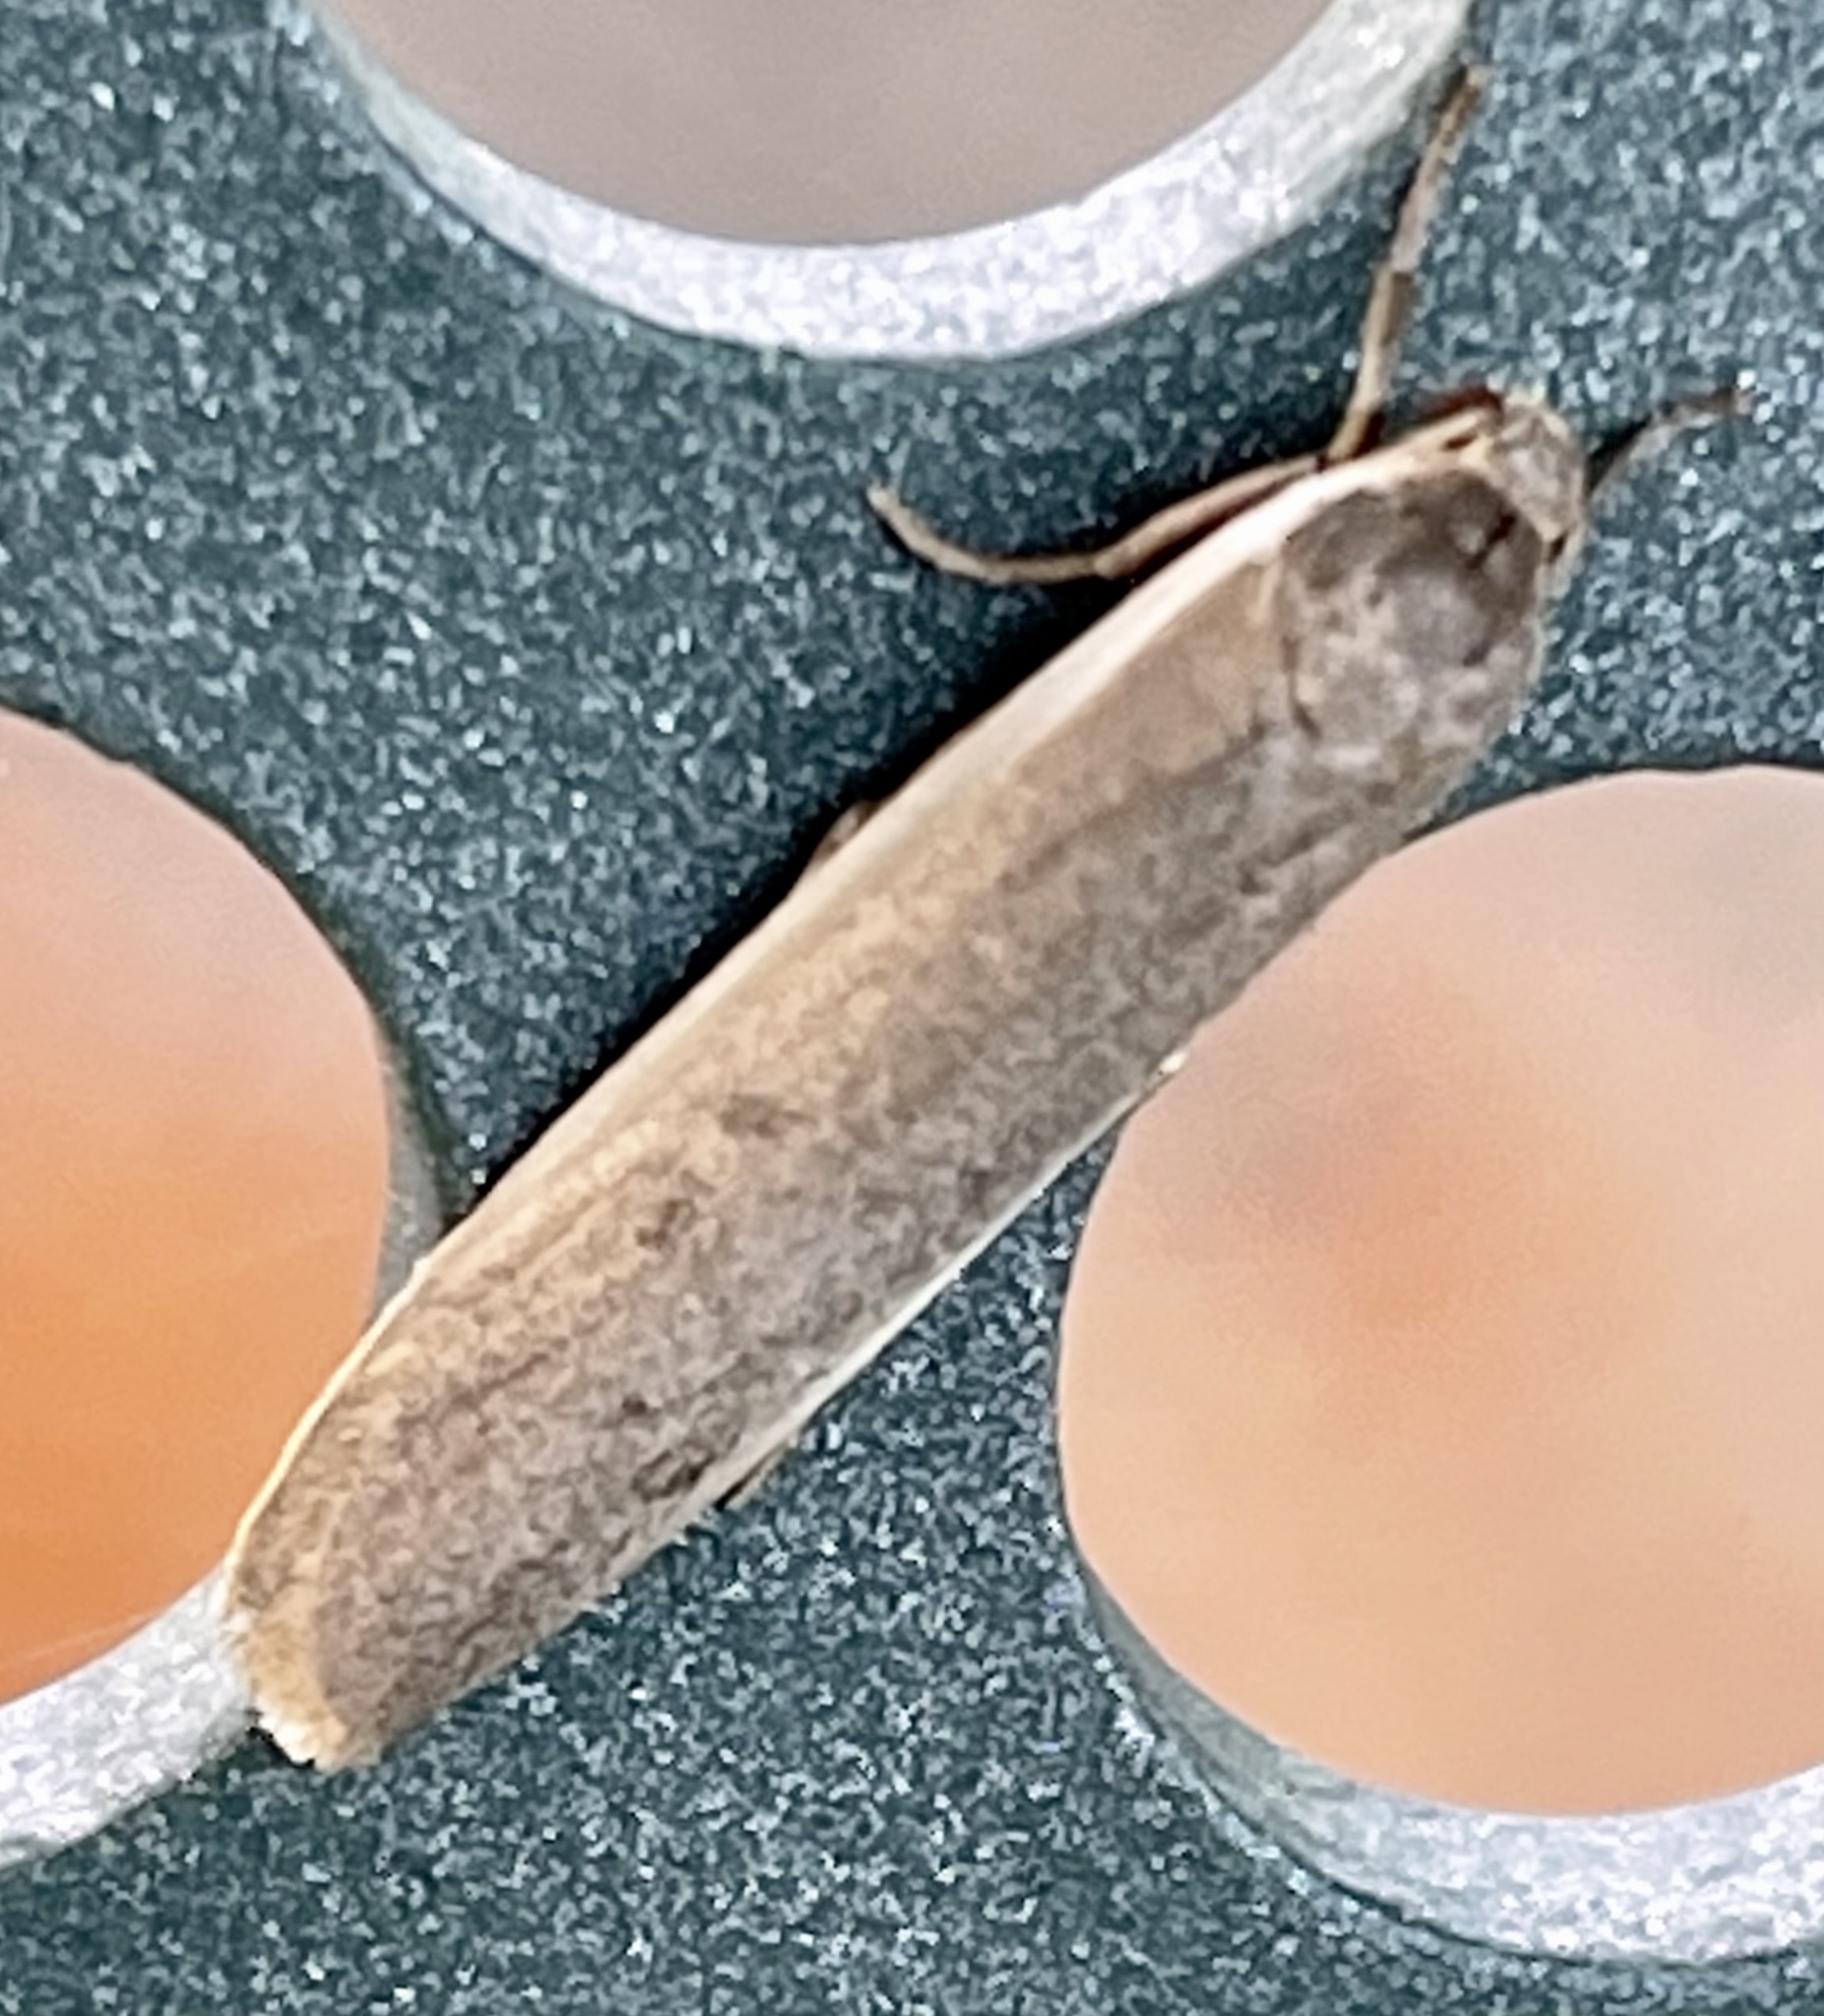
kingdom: Animalia
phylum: Arthropoda
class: Insecta
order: Lepidoptera
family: Erebidae
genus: Scoliacma
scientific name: Scoliacma nana
